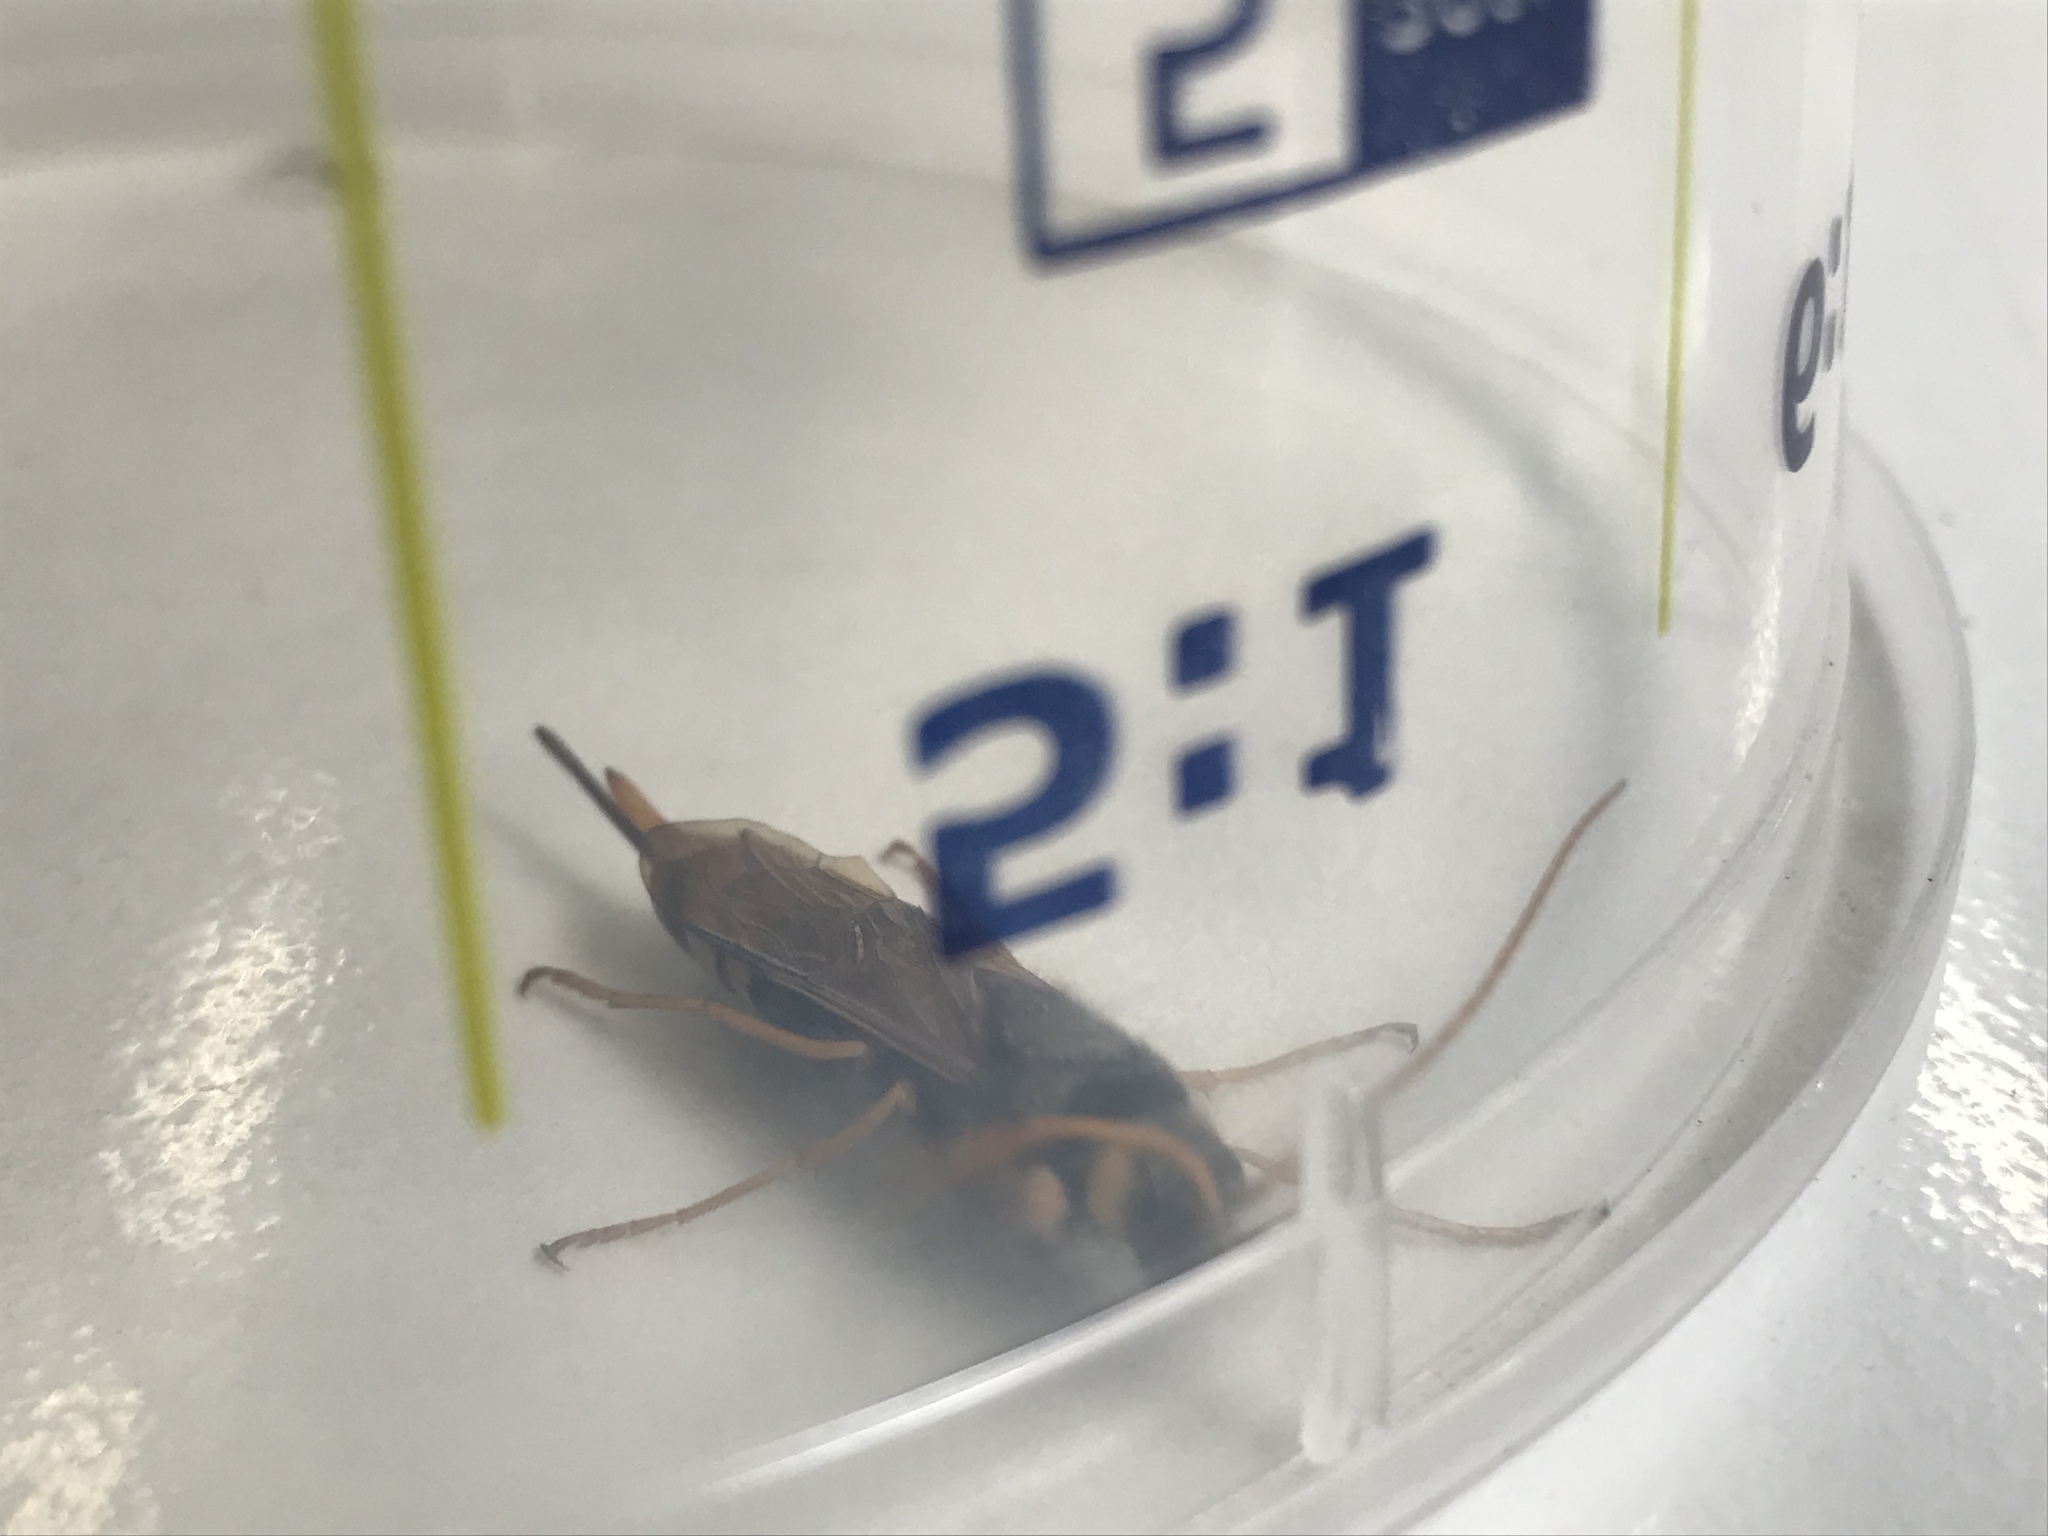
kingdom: Animalia
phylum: Arthropoda
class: Insecta
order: Hymenoptera
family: Siricidae
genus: Urocerus
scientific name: Urocerus gigas
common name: Giant woodwasp
